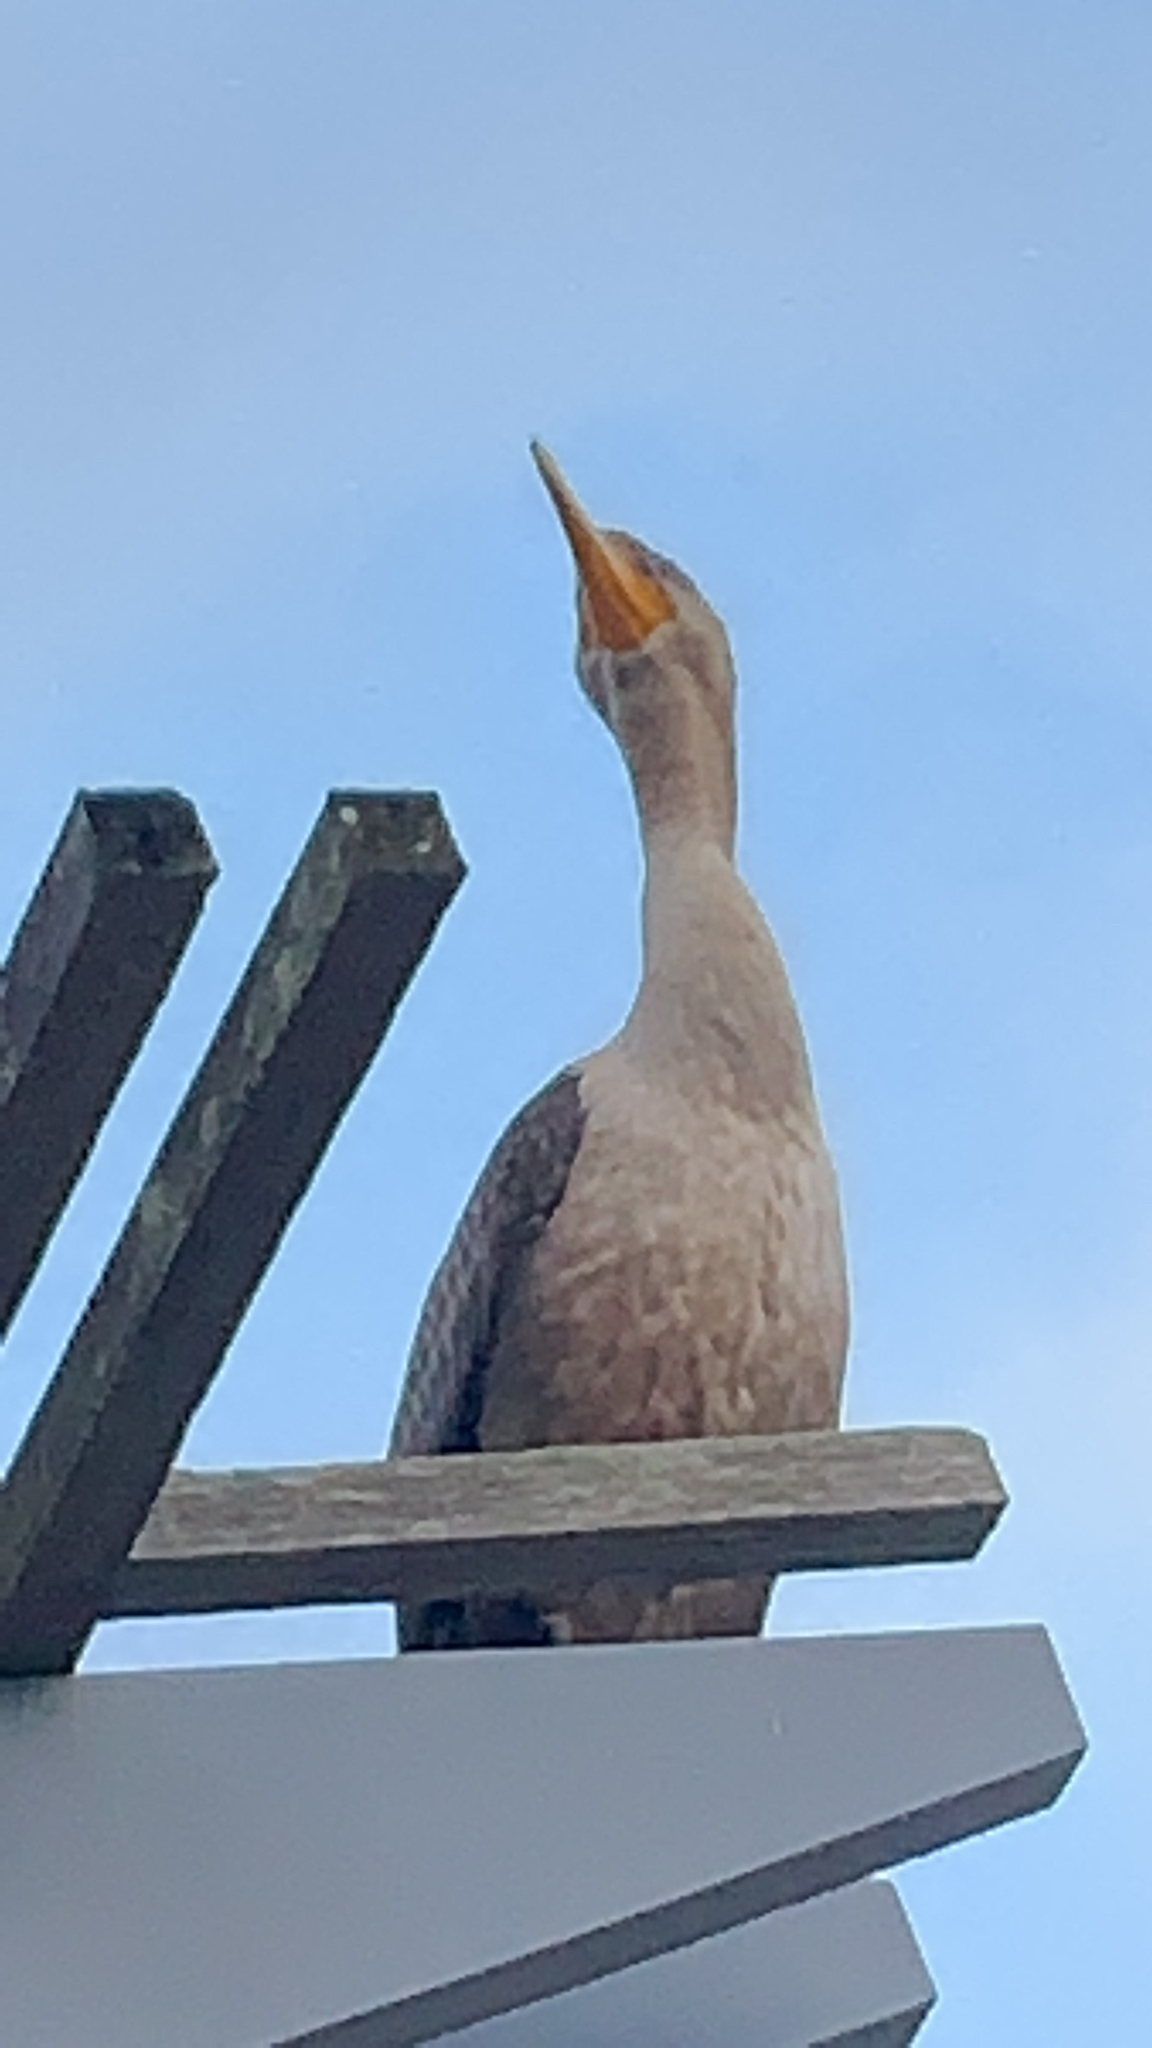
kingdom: Animalia
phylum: Chordata
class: Aves
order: Suliformes
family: Phalacrocoracidae
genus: Phalacrocorax
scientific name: Phalacrocorax auritus
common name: Double-crested cormorant
